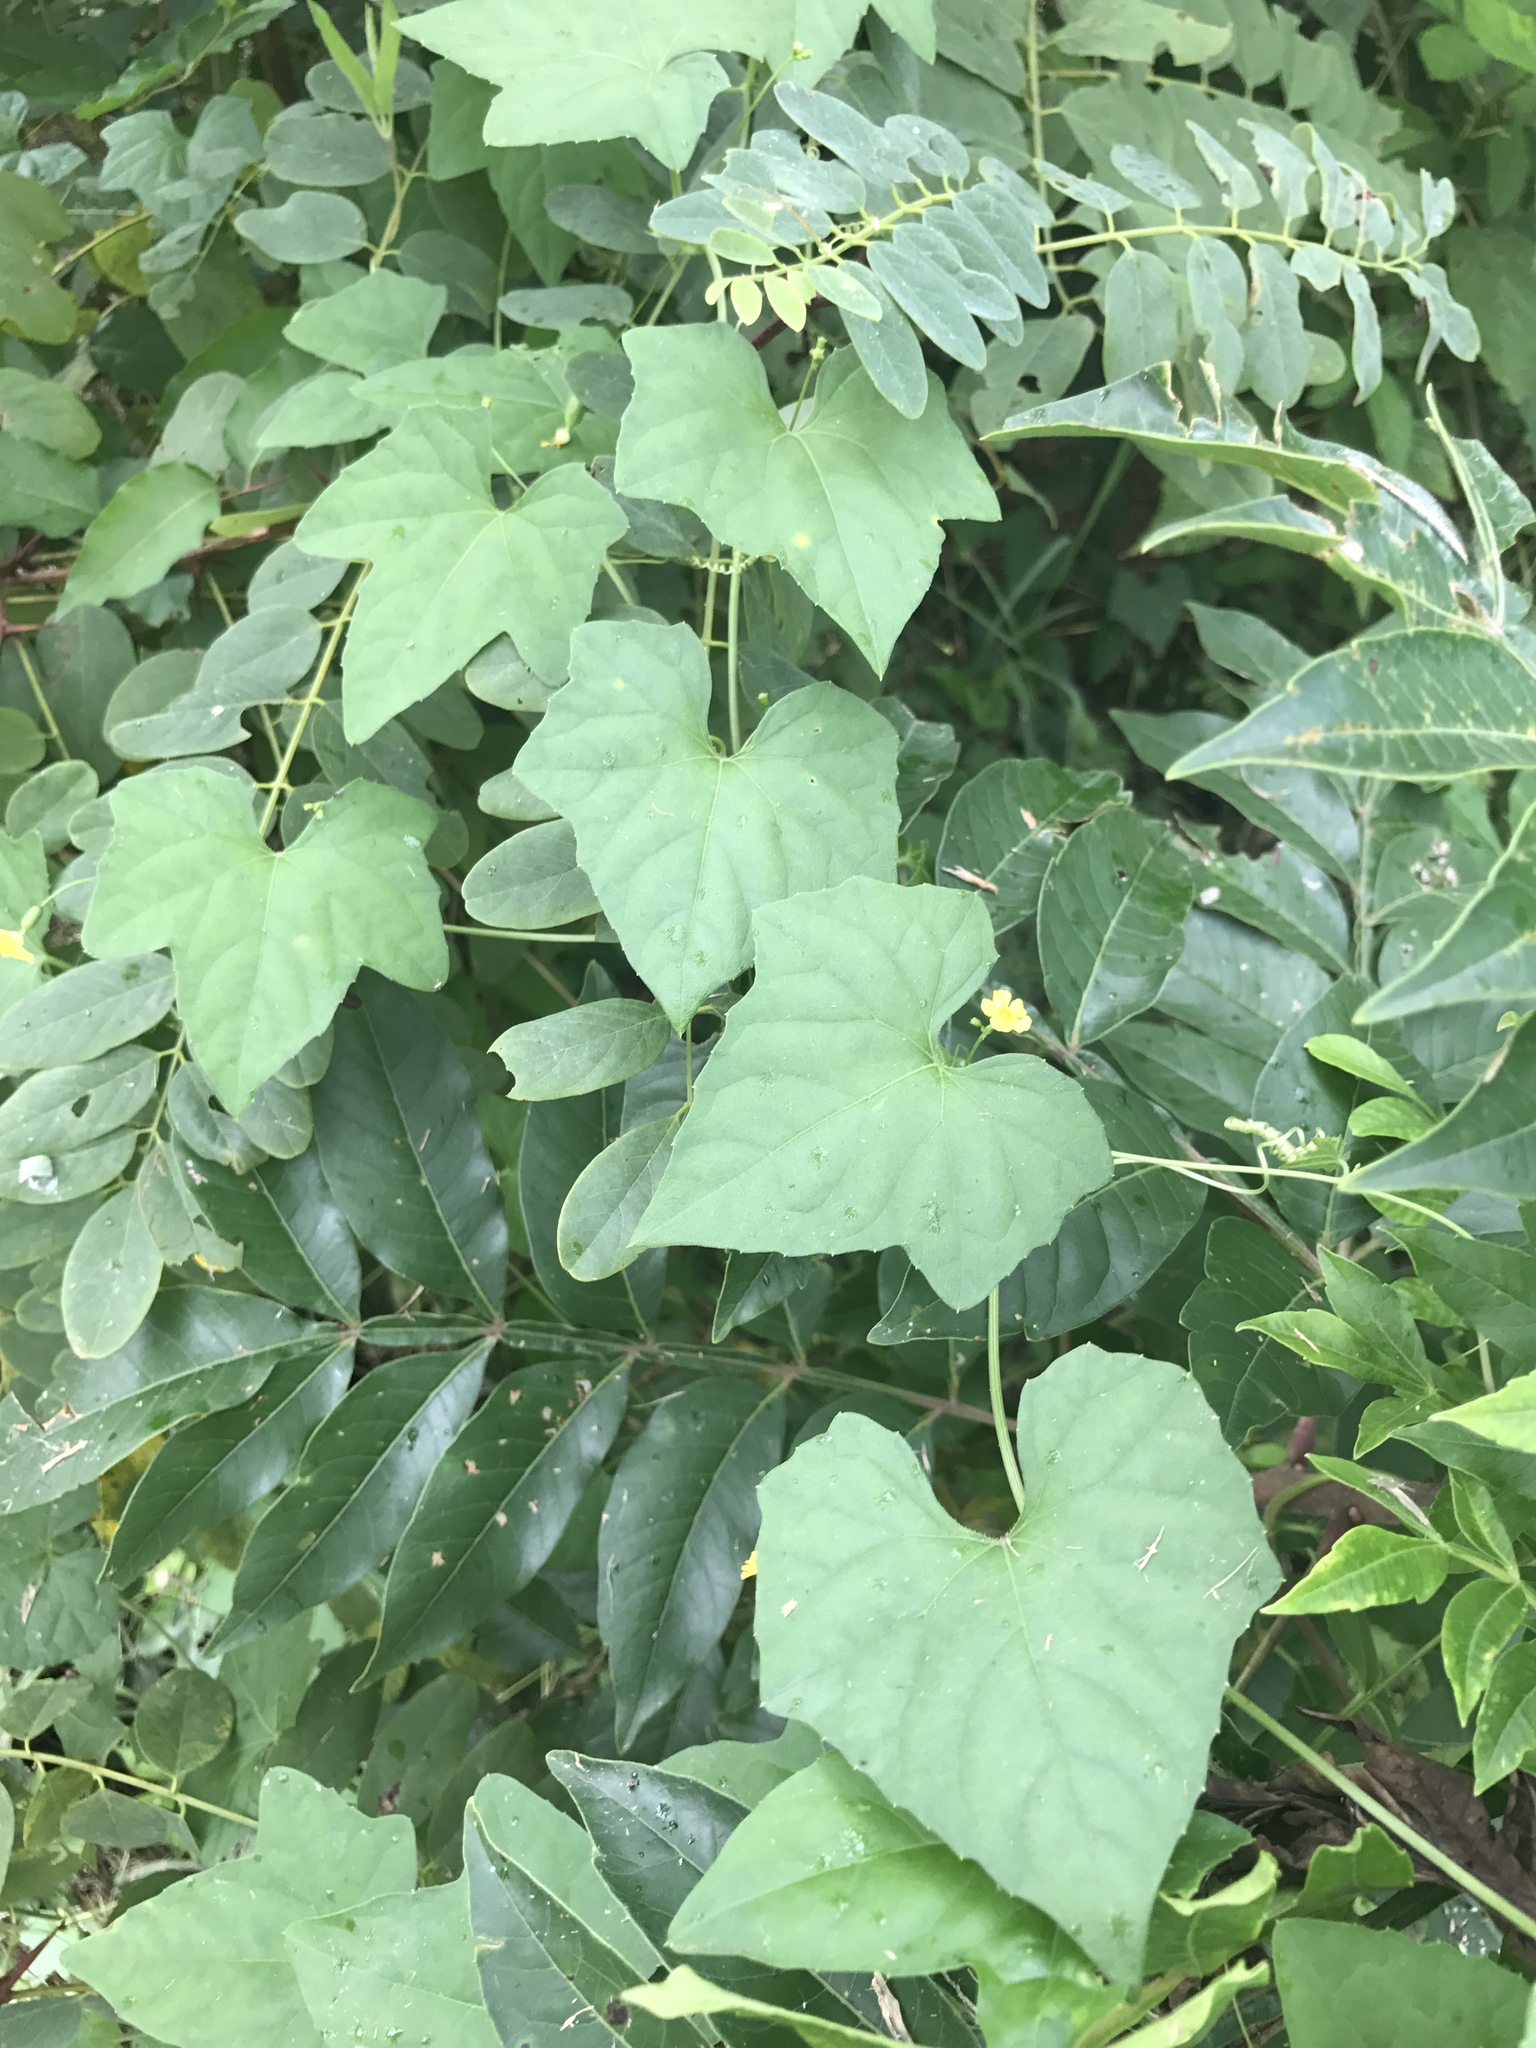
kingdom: Plantae
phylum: Tracheophyta
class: Magnoliopsida
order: Cucurbitales
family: Cucurbitaceae
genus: Melothria
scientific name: Melothria pendula
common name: Creeping-cucumber
